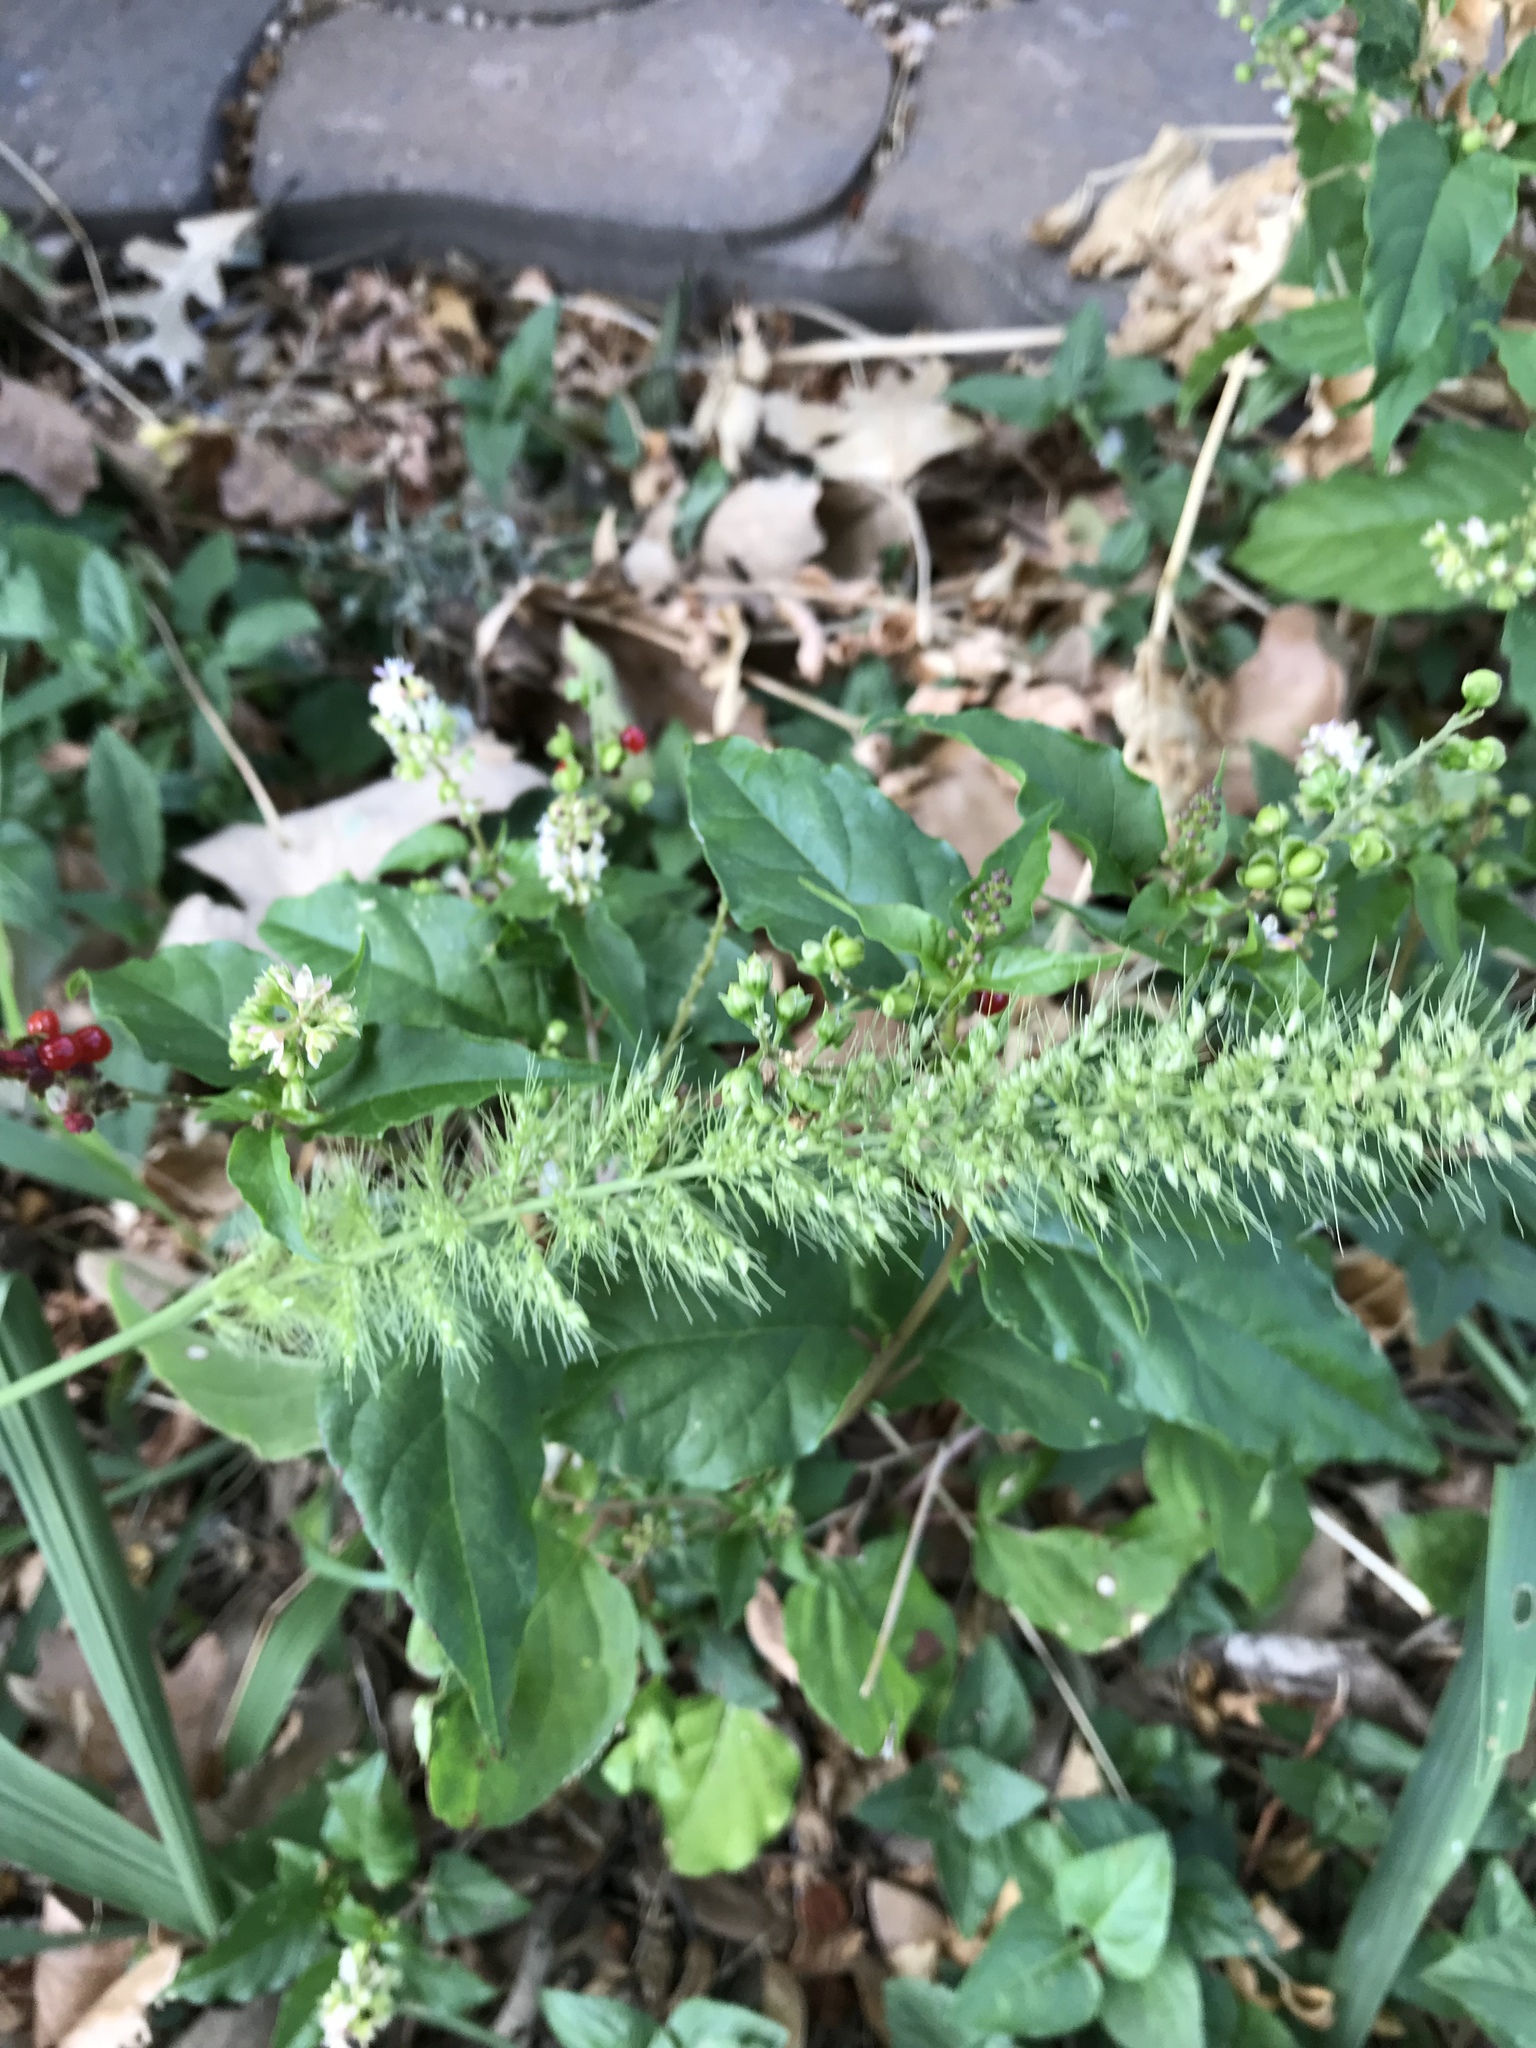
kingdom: Plantae
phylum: Tracheophyta
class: Liliopsida
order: Poales
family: Poaceae
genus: Setaria
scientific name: Setaria scheelei
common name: Southwestern bristle grass
